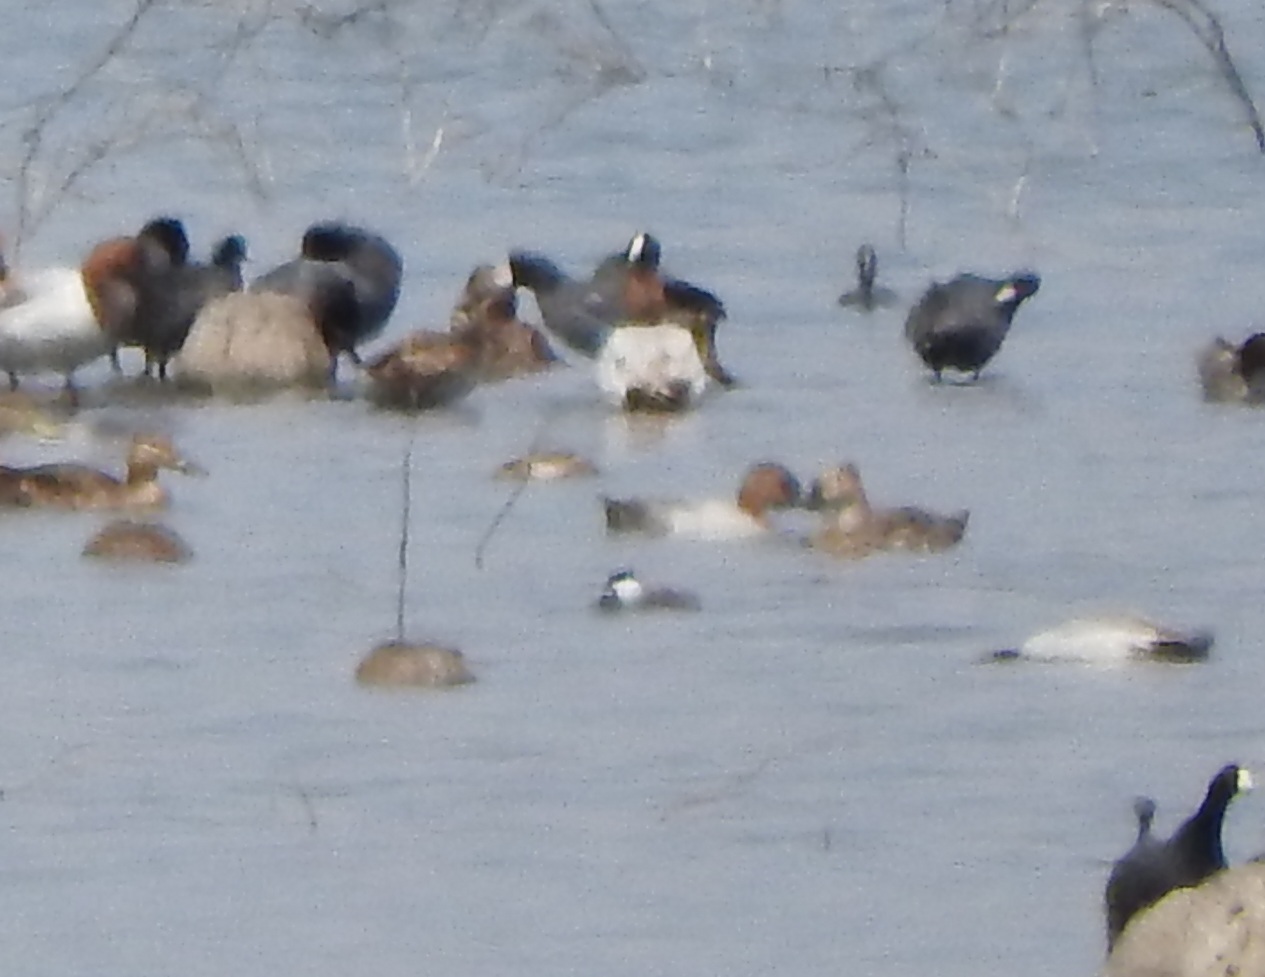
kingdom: Animalia
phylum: Chordata
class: Aves
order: Anseriformes
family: Anatidae
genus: Oxyura
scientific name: Oxyura jamaicensis
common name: Ruddy duck
